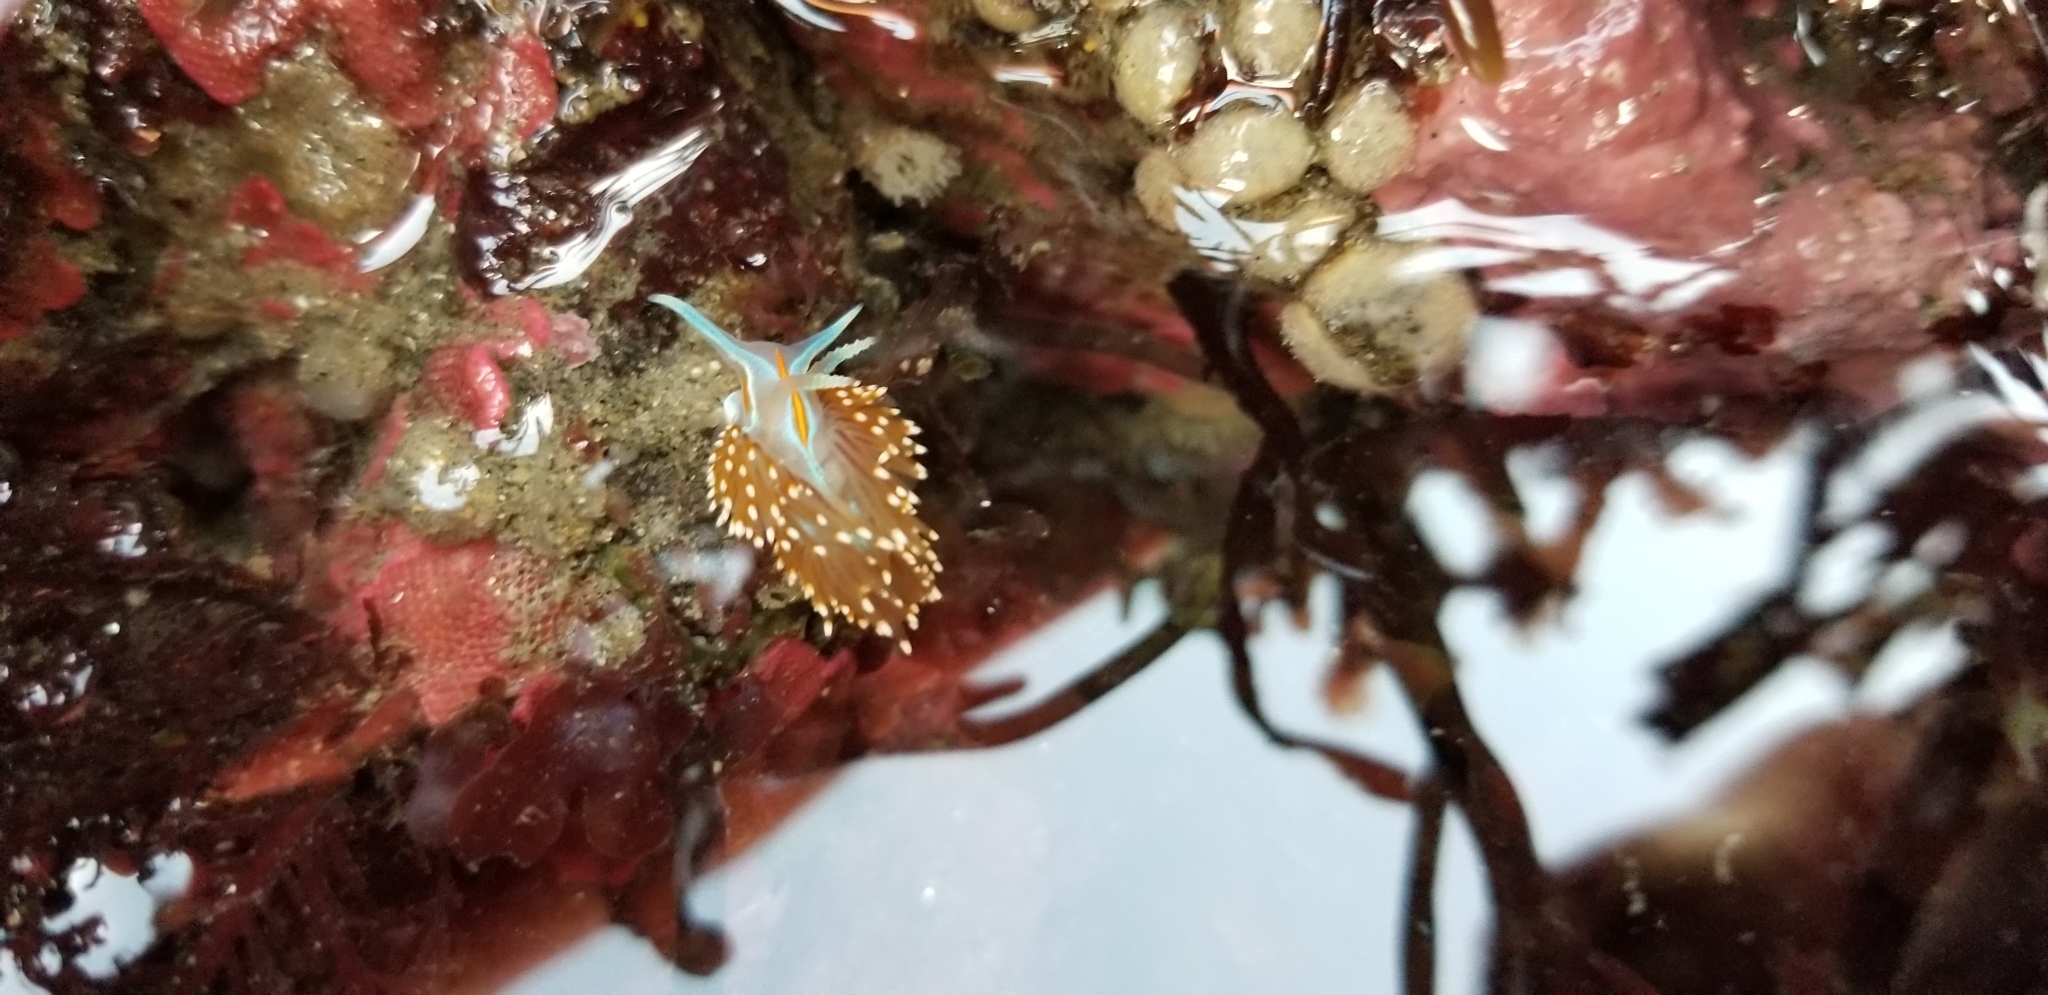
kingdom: Animalia
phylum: Mollusca
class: Gastropoda
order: Nudibranchia
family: Myrrhinidae
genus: Hermissenda
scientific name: Hermissenda opalescens
